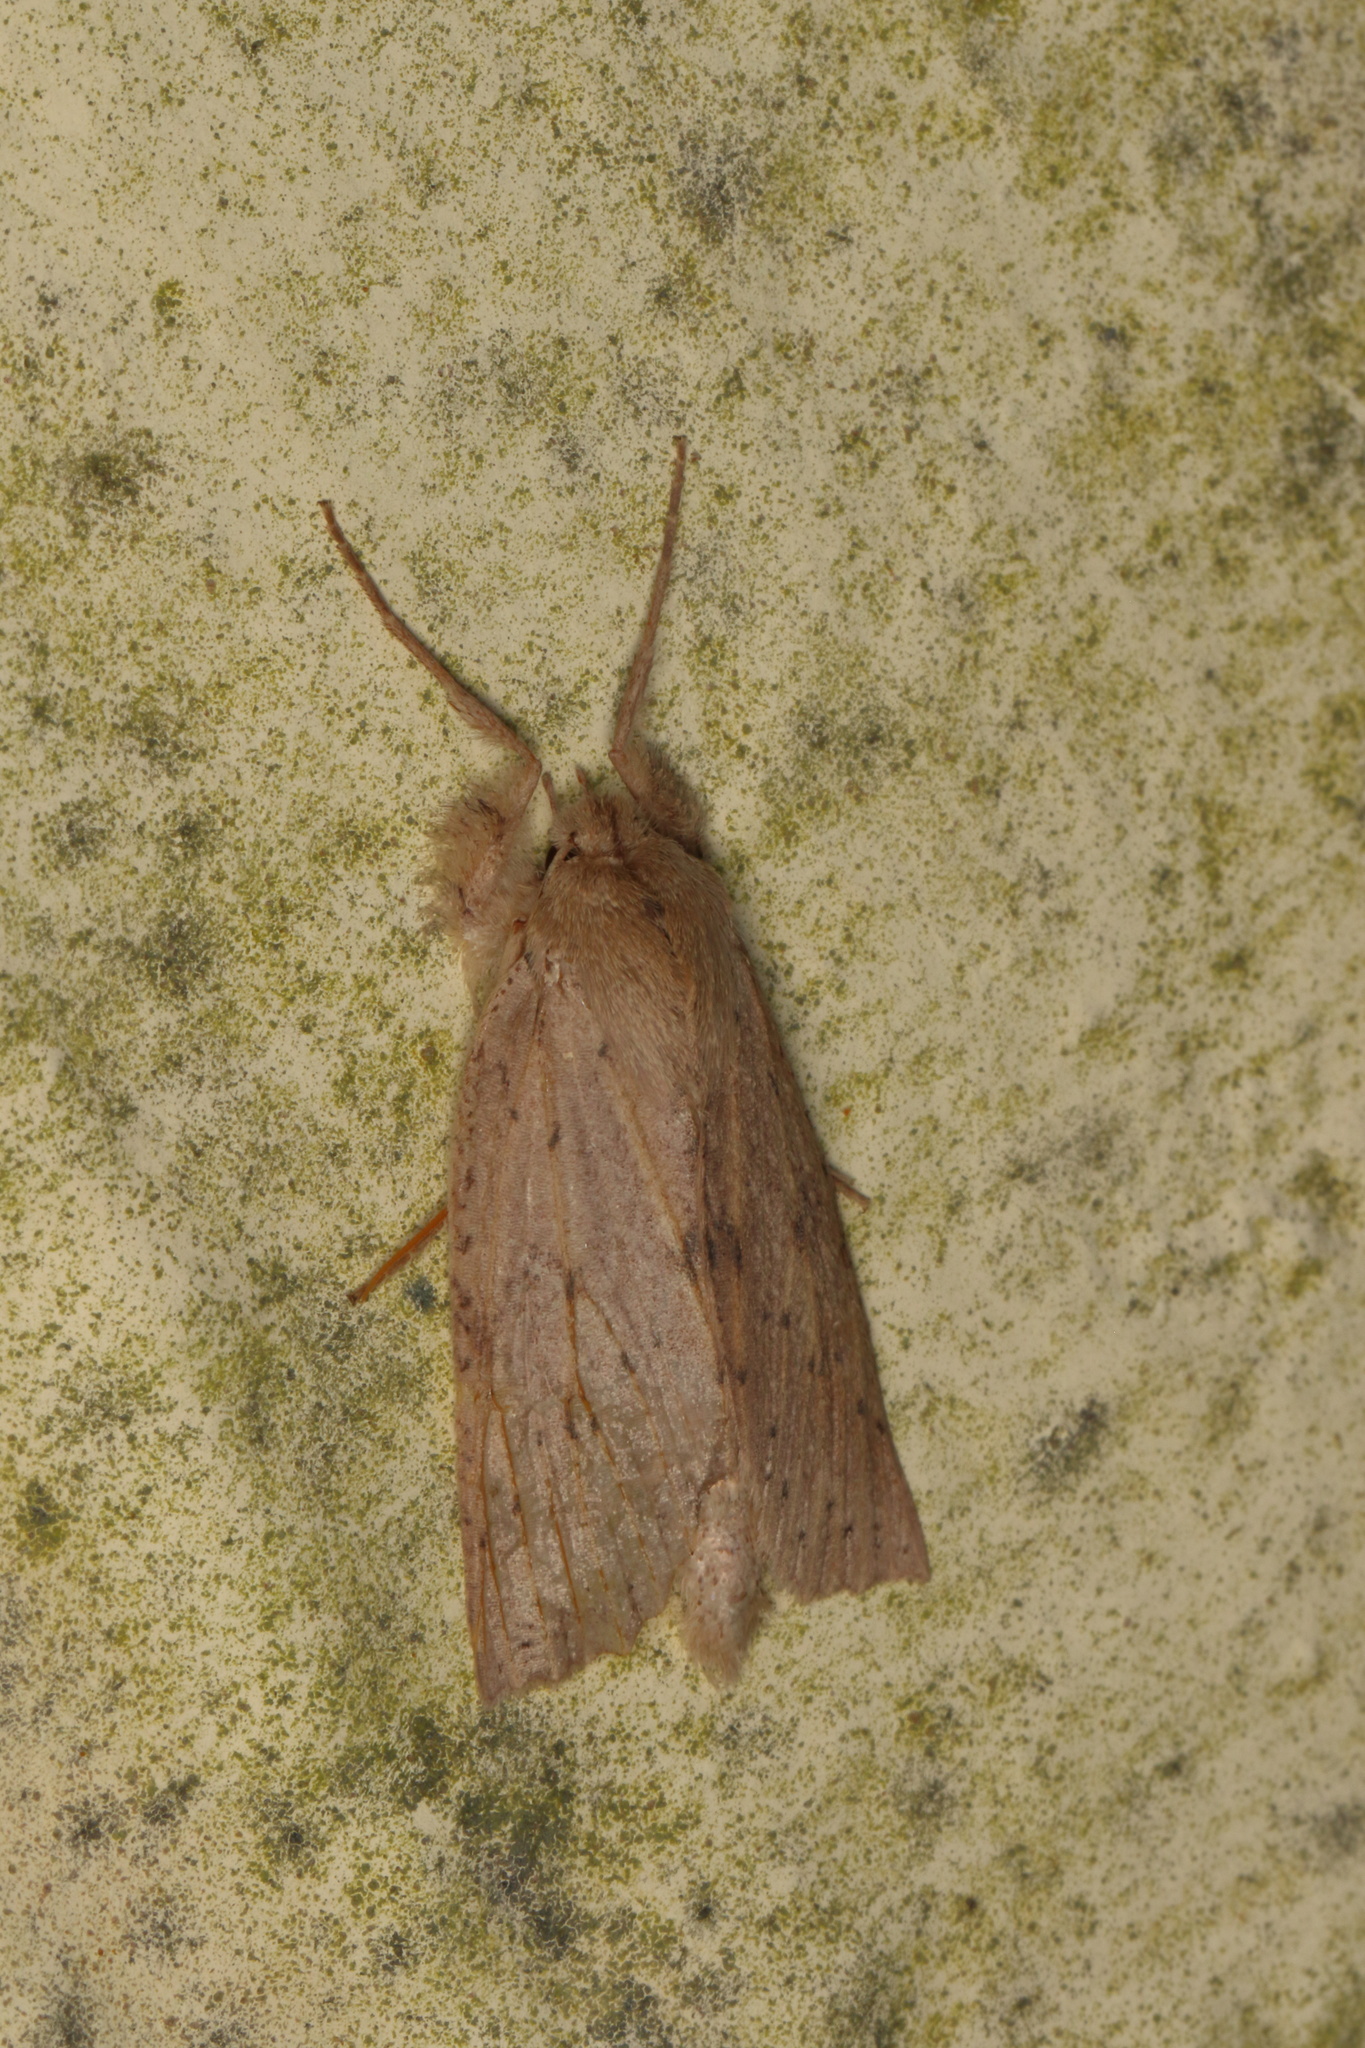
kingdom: Animalia
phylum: Arthropoda
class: Insecta
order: Lepidoptera
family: Geometridae
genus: Declana
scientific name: Declana leptomera
